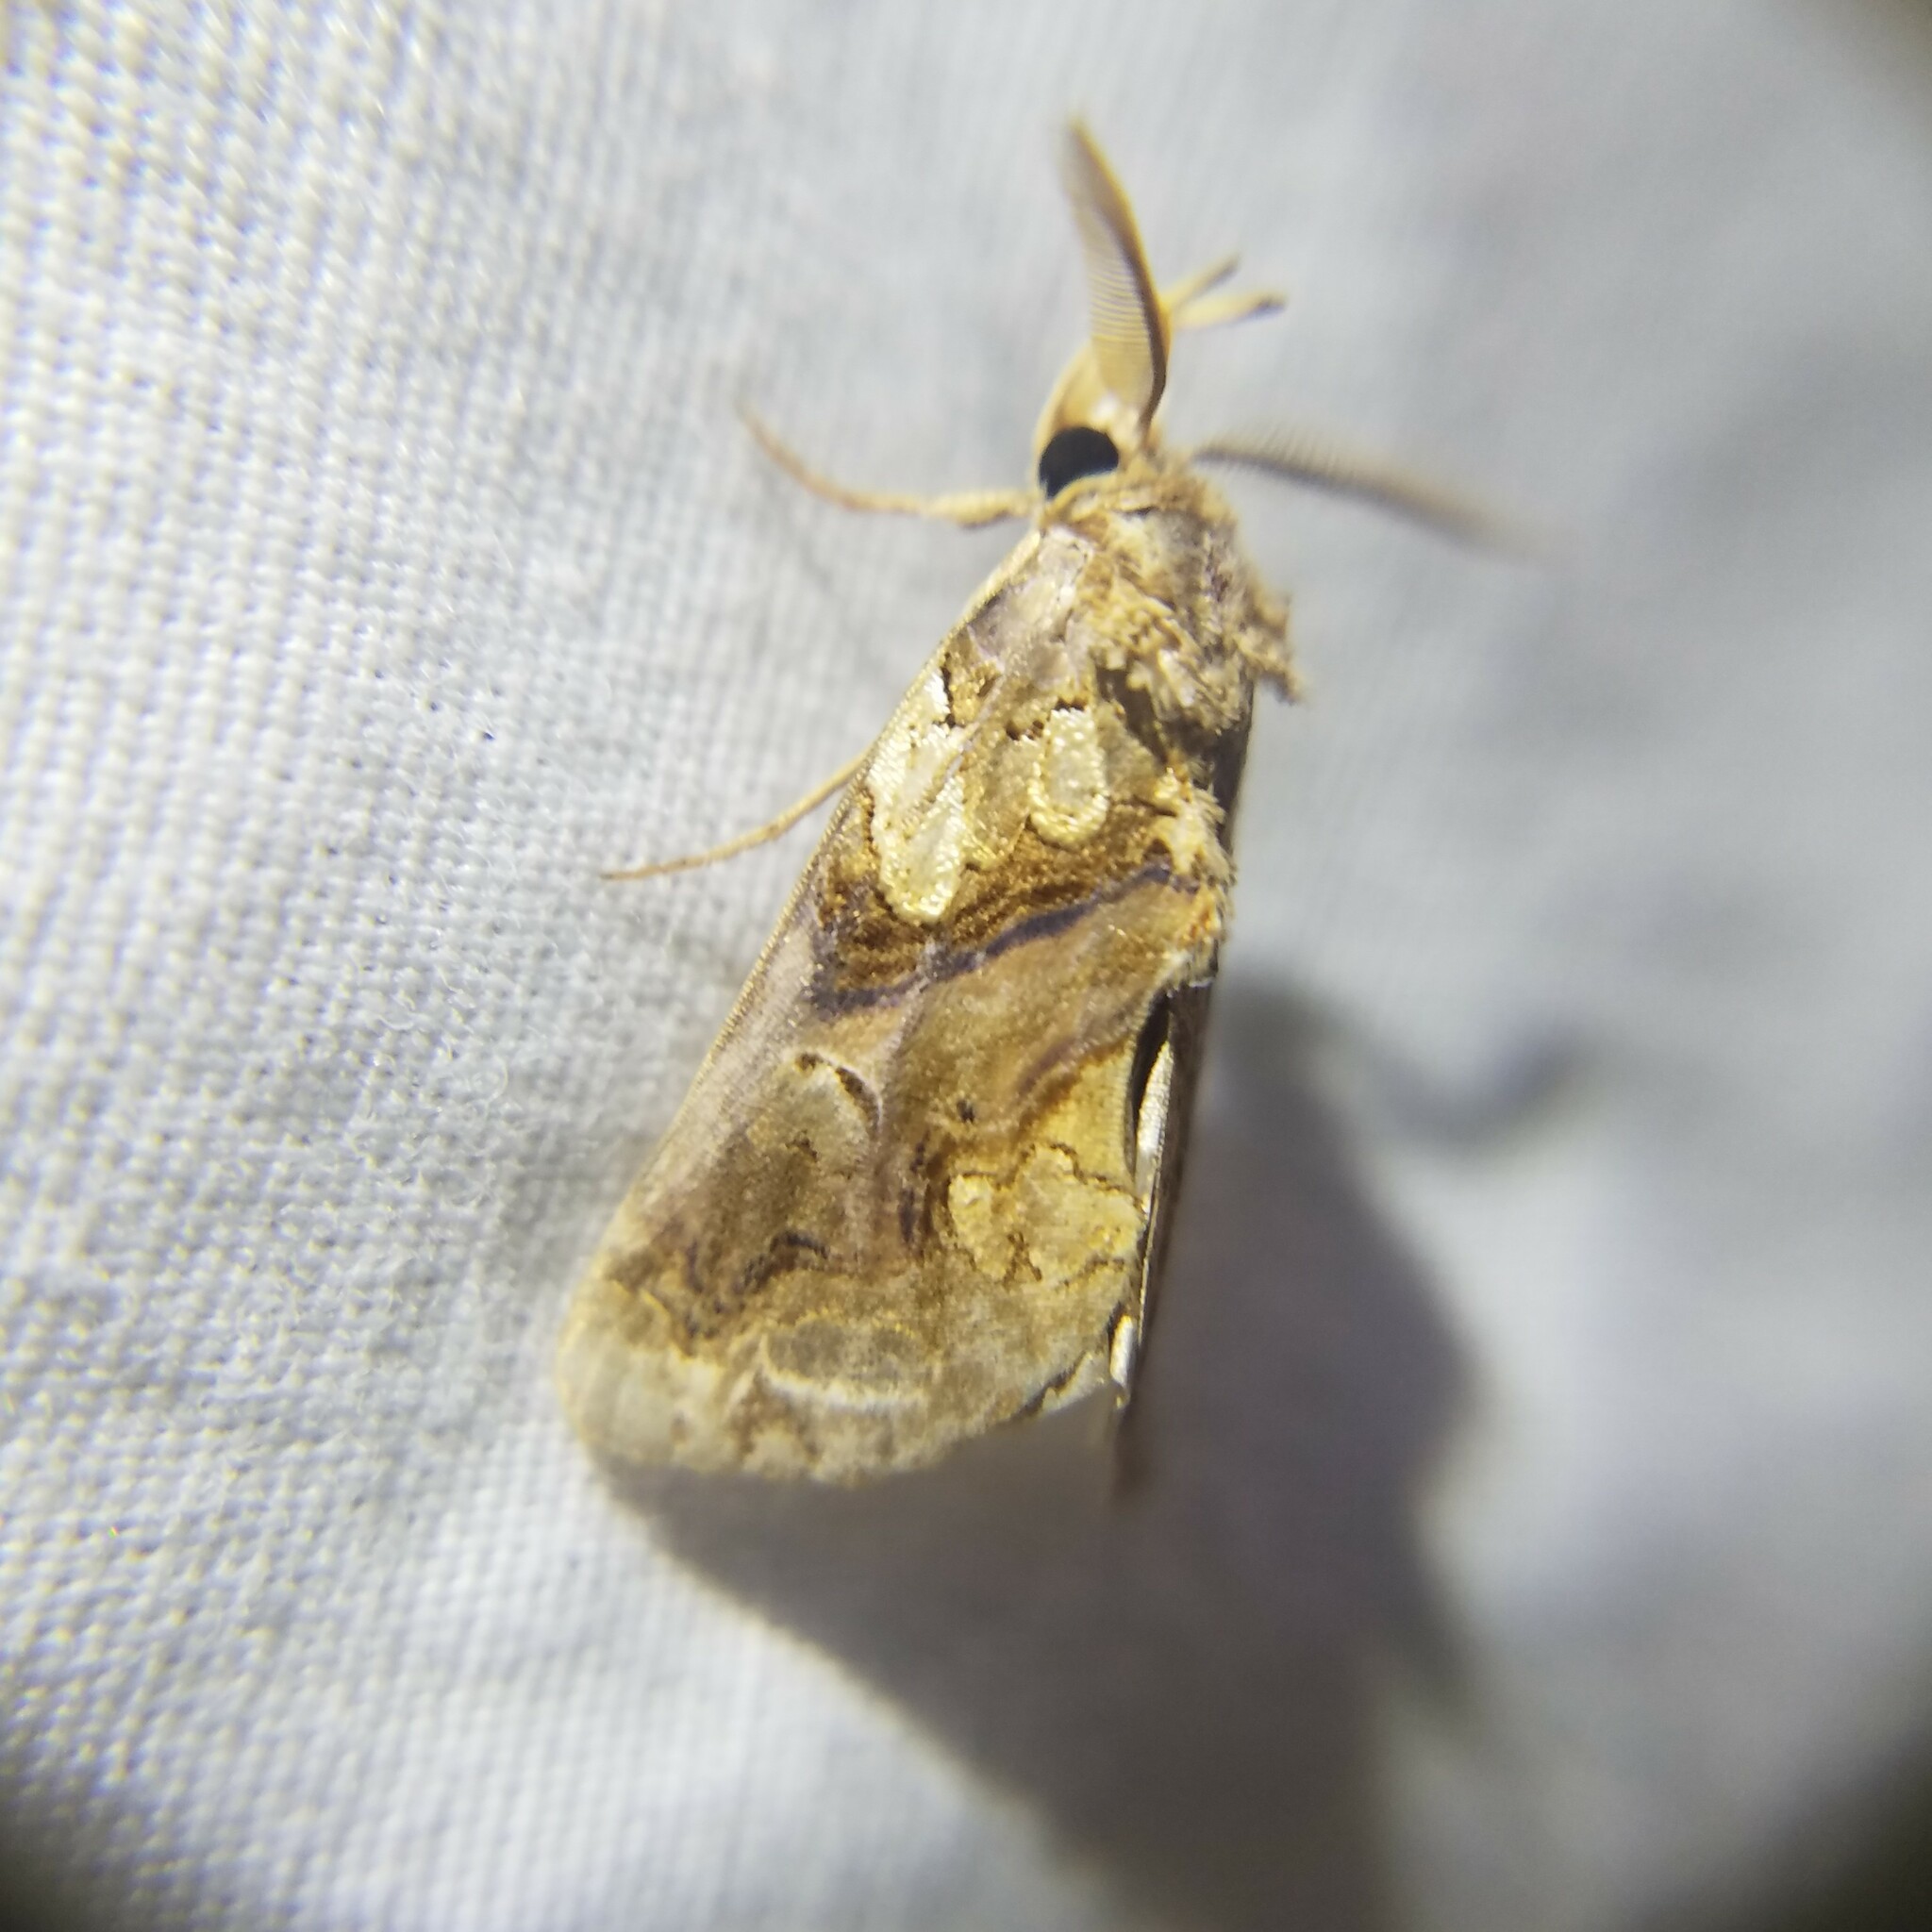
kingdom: Animalia
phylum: Arthropoda
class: Insecta
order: Lepidoptera
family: Erebidae
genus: Plusiodonta
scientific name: Plusiodonta compressipalpis
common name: Moonseed moth
